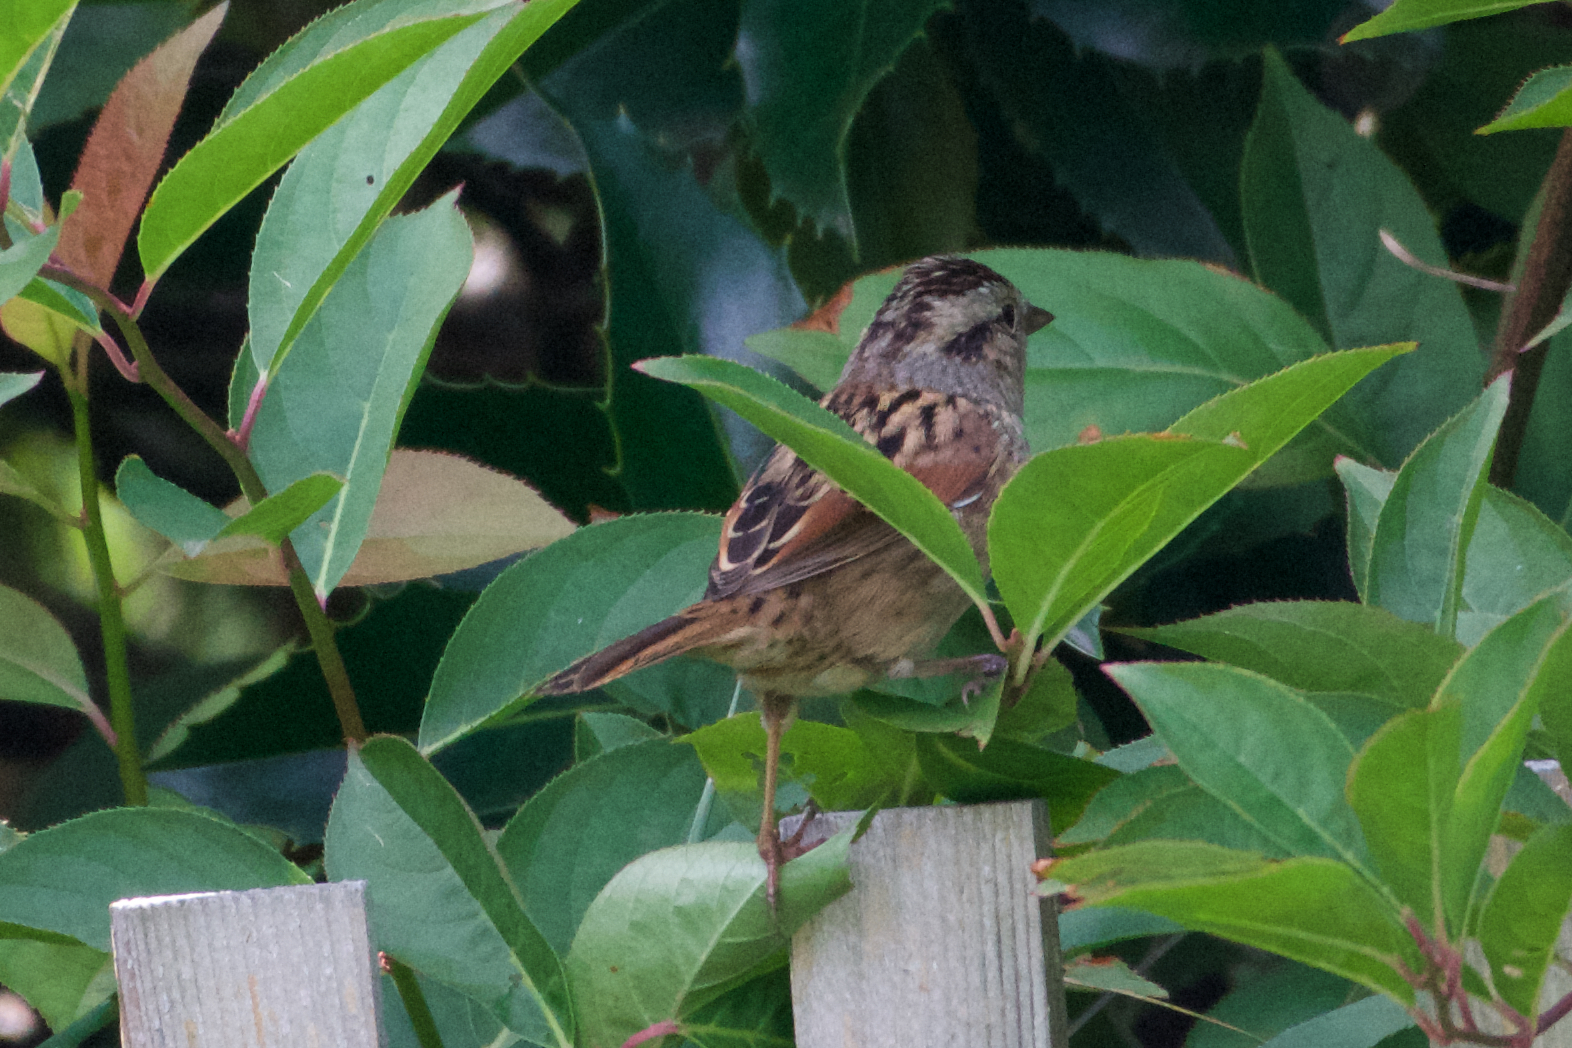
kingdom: Animalia
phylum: Chordata
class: Aves
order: Passeriformes
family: Passerellidae
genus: Melospiza
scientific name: Melospiza lincolnii
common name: Lincoln's sparrow
